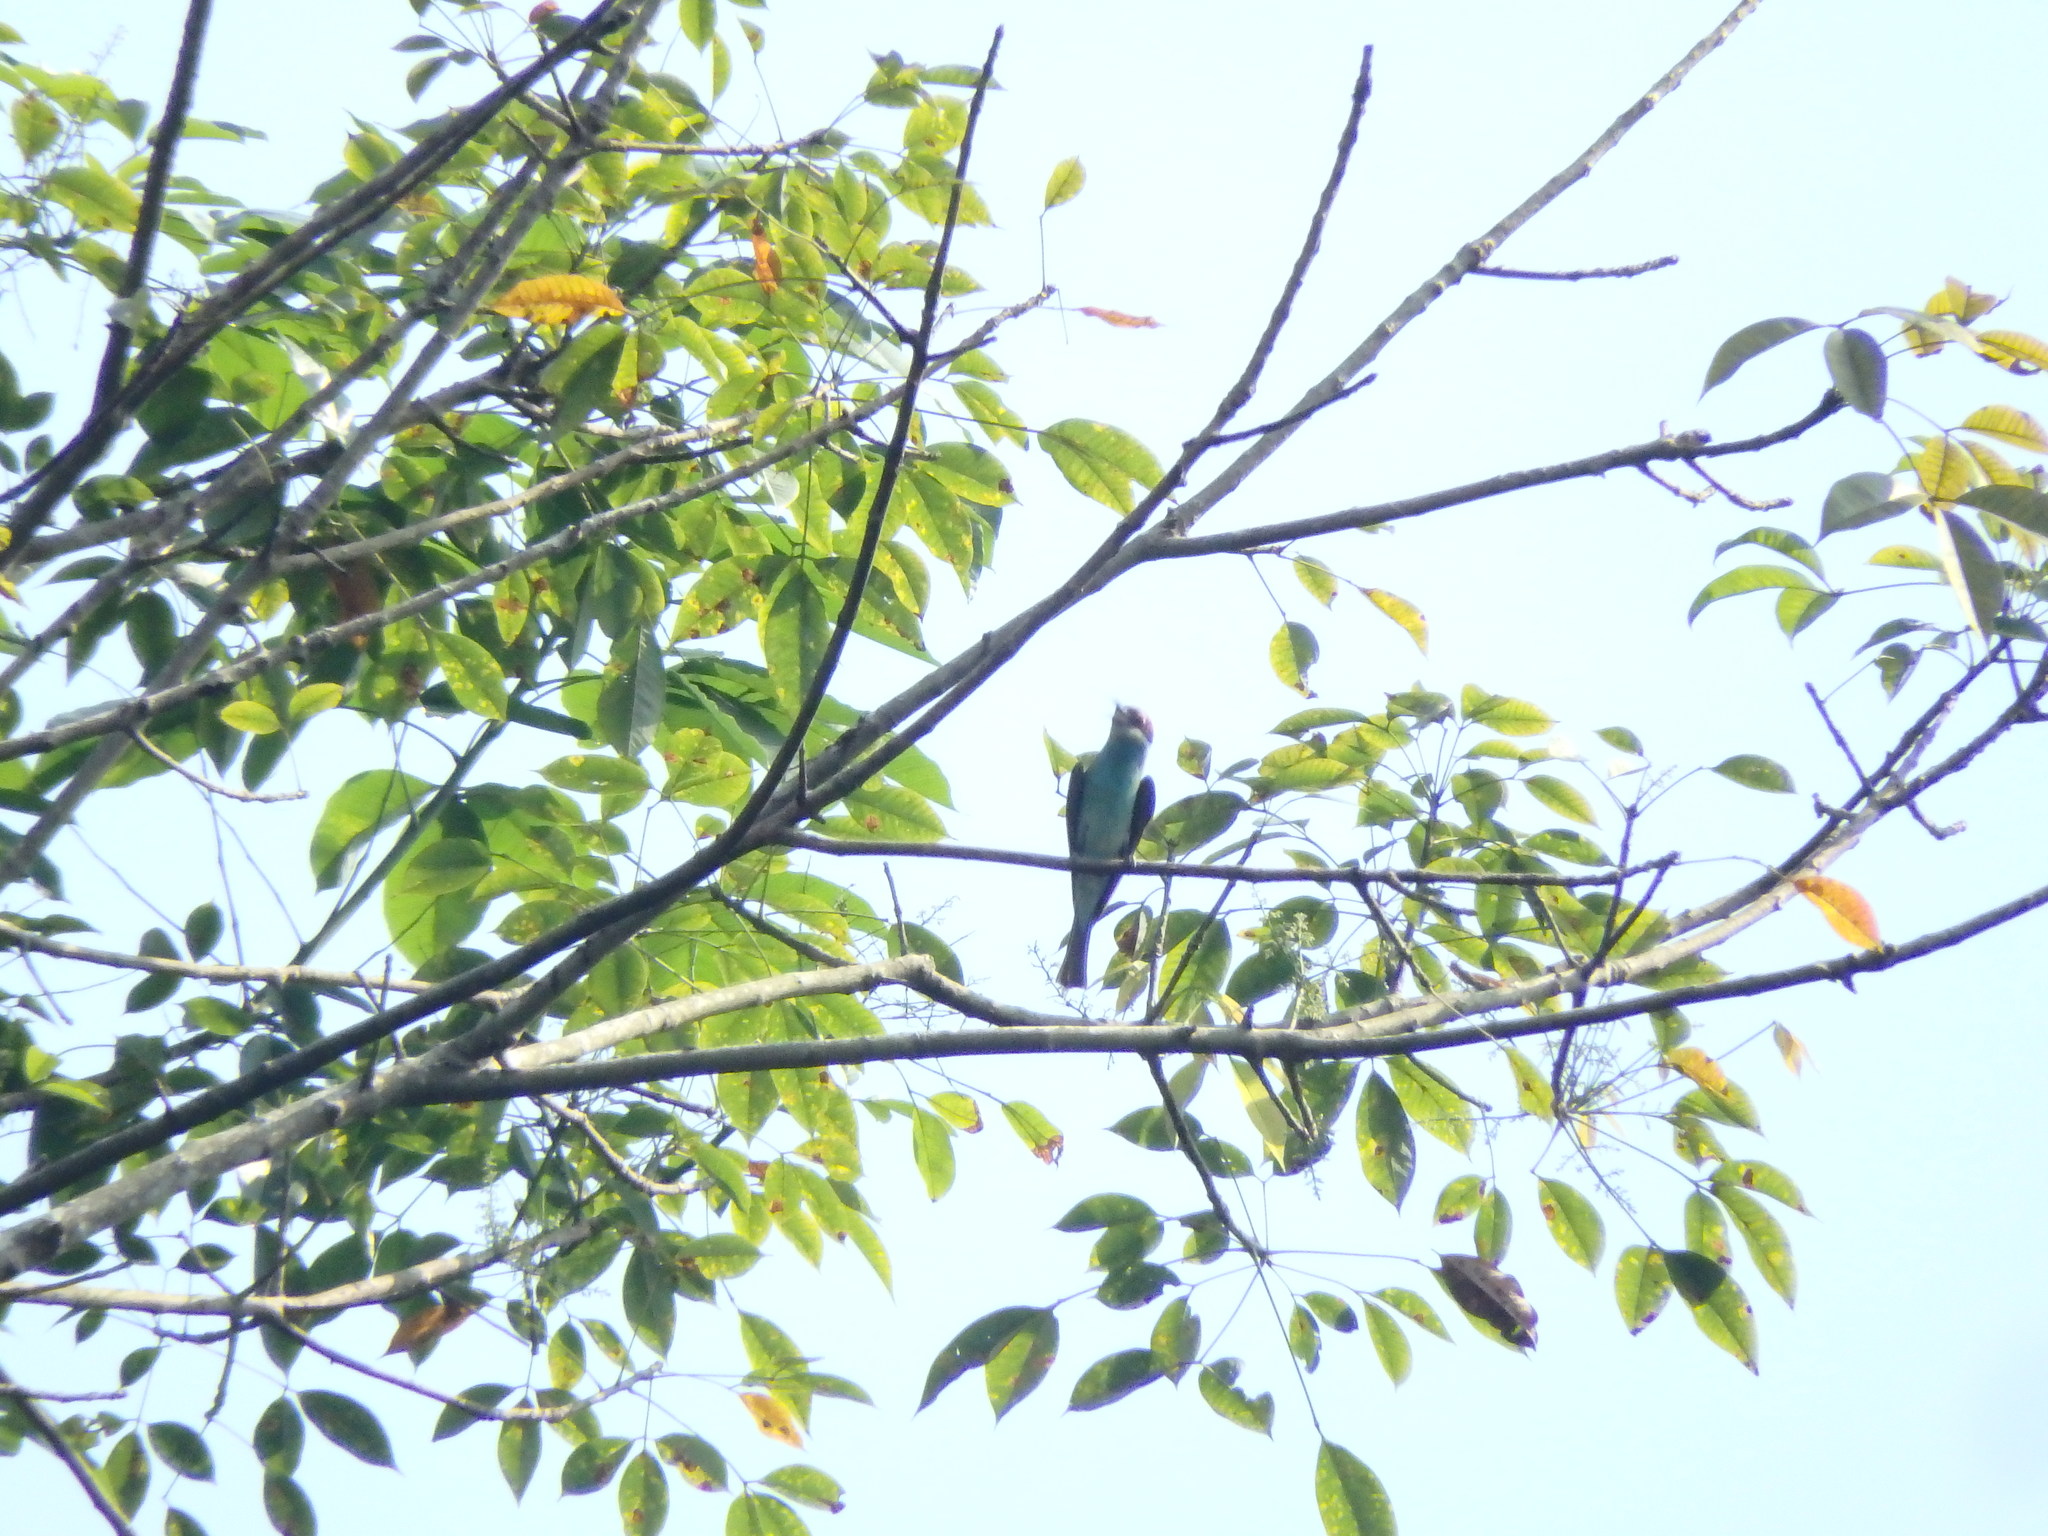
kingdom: Animalia
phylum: Chordata
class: Aves
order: Coraciiformes
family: Meropidae
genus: Merops
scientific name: Merops viridis
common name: Blue-throated bee-eater
